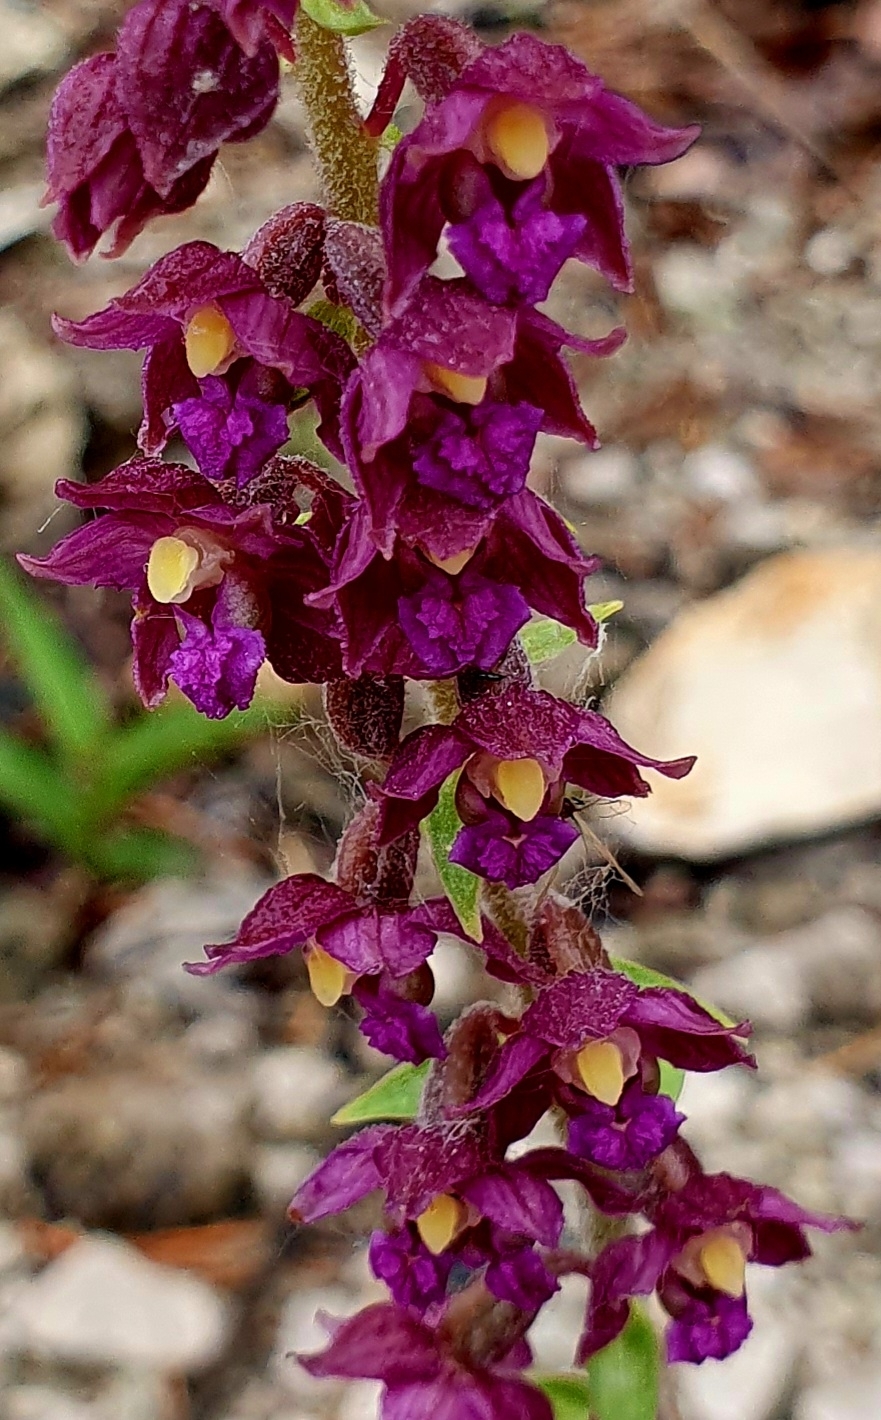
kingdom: Plantae
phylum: Tracheophyta
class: Liliopsida
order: Asparagales
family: Orchidaceae
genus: Epipactis
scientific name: Epipactis atrorubens
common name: Dark-red helleborine
